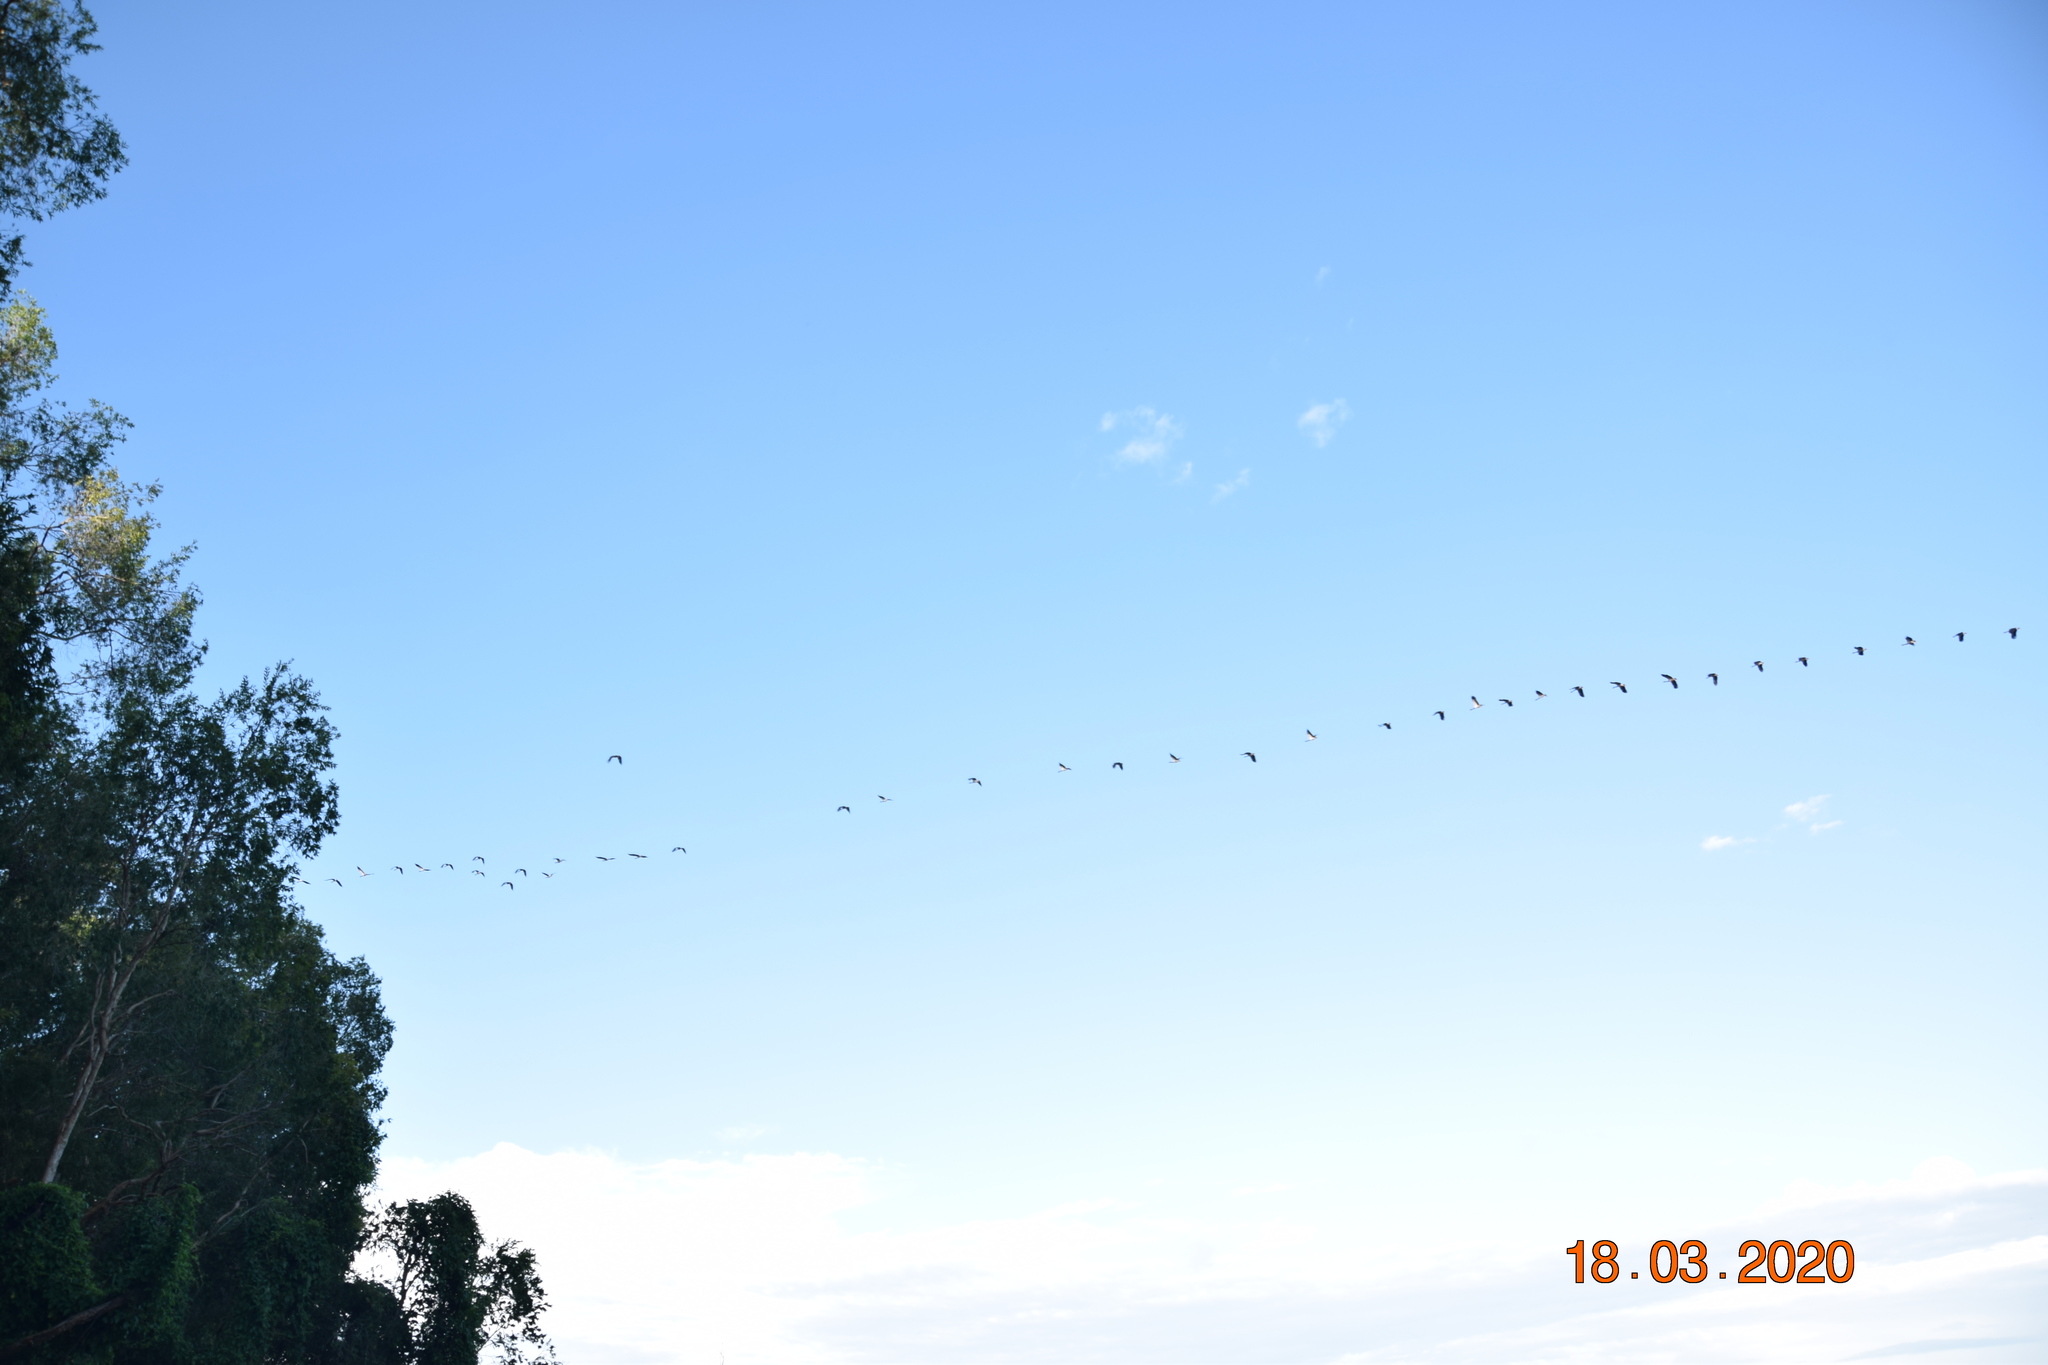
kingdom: Animalia
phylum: Chordata
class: Aves
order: Anseriformes
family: Anseranatidae
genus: Anseranas
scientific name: Anseranas semipalmata
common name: Magpie goose
